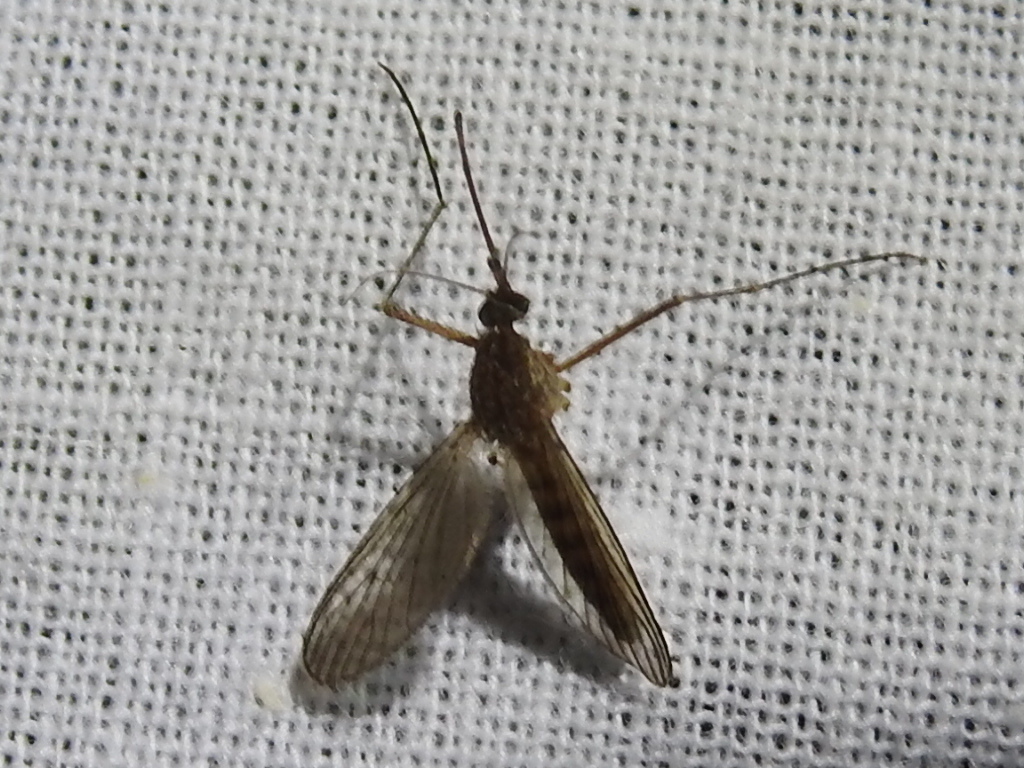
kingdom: Animalia
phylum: Arthropoda
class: Insecta
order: Diptera
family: Culicidae
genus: Culiseta
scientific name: Culiseta inornata
